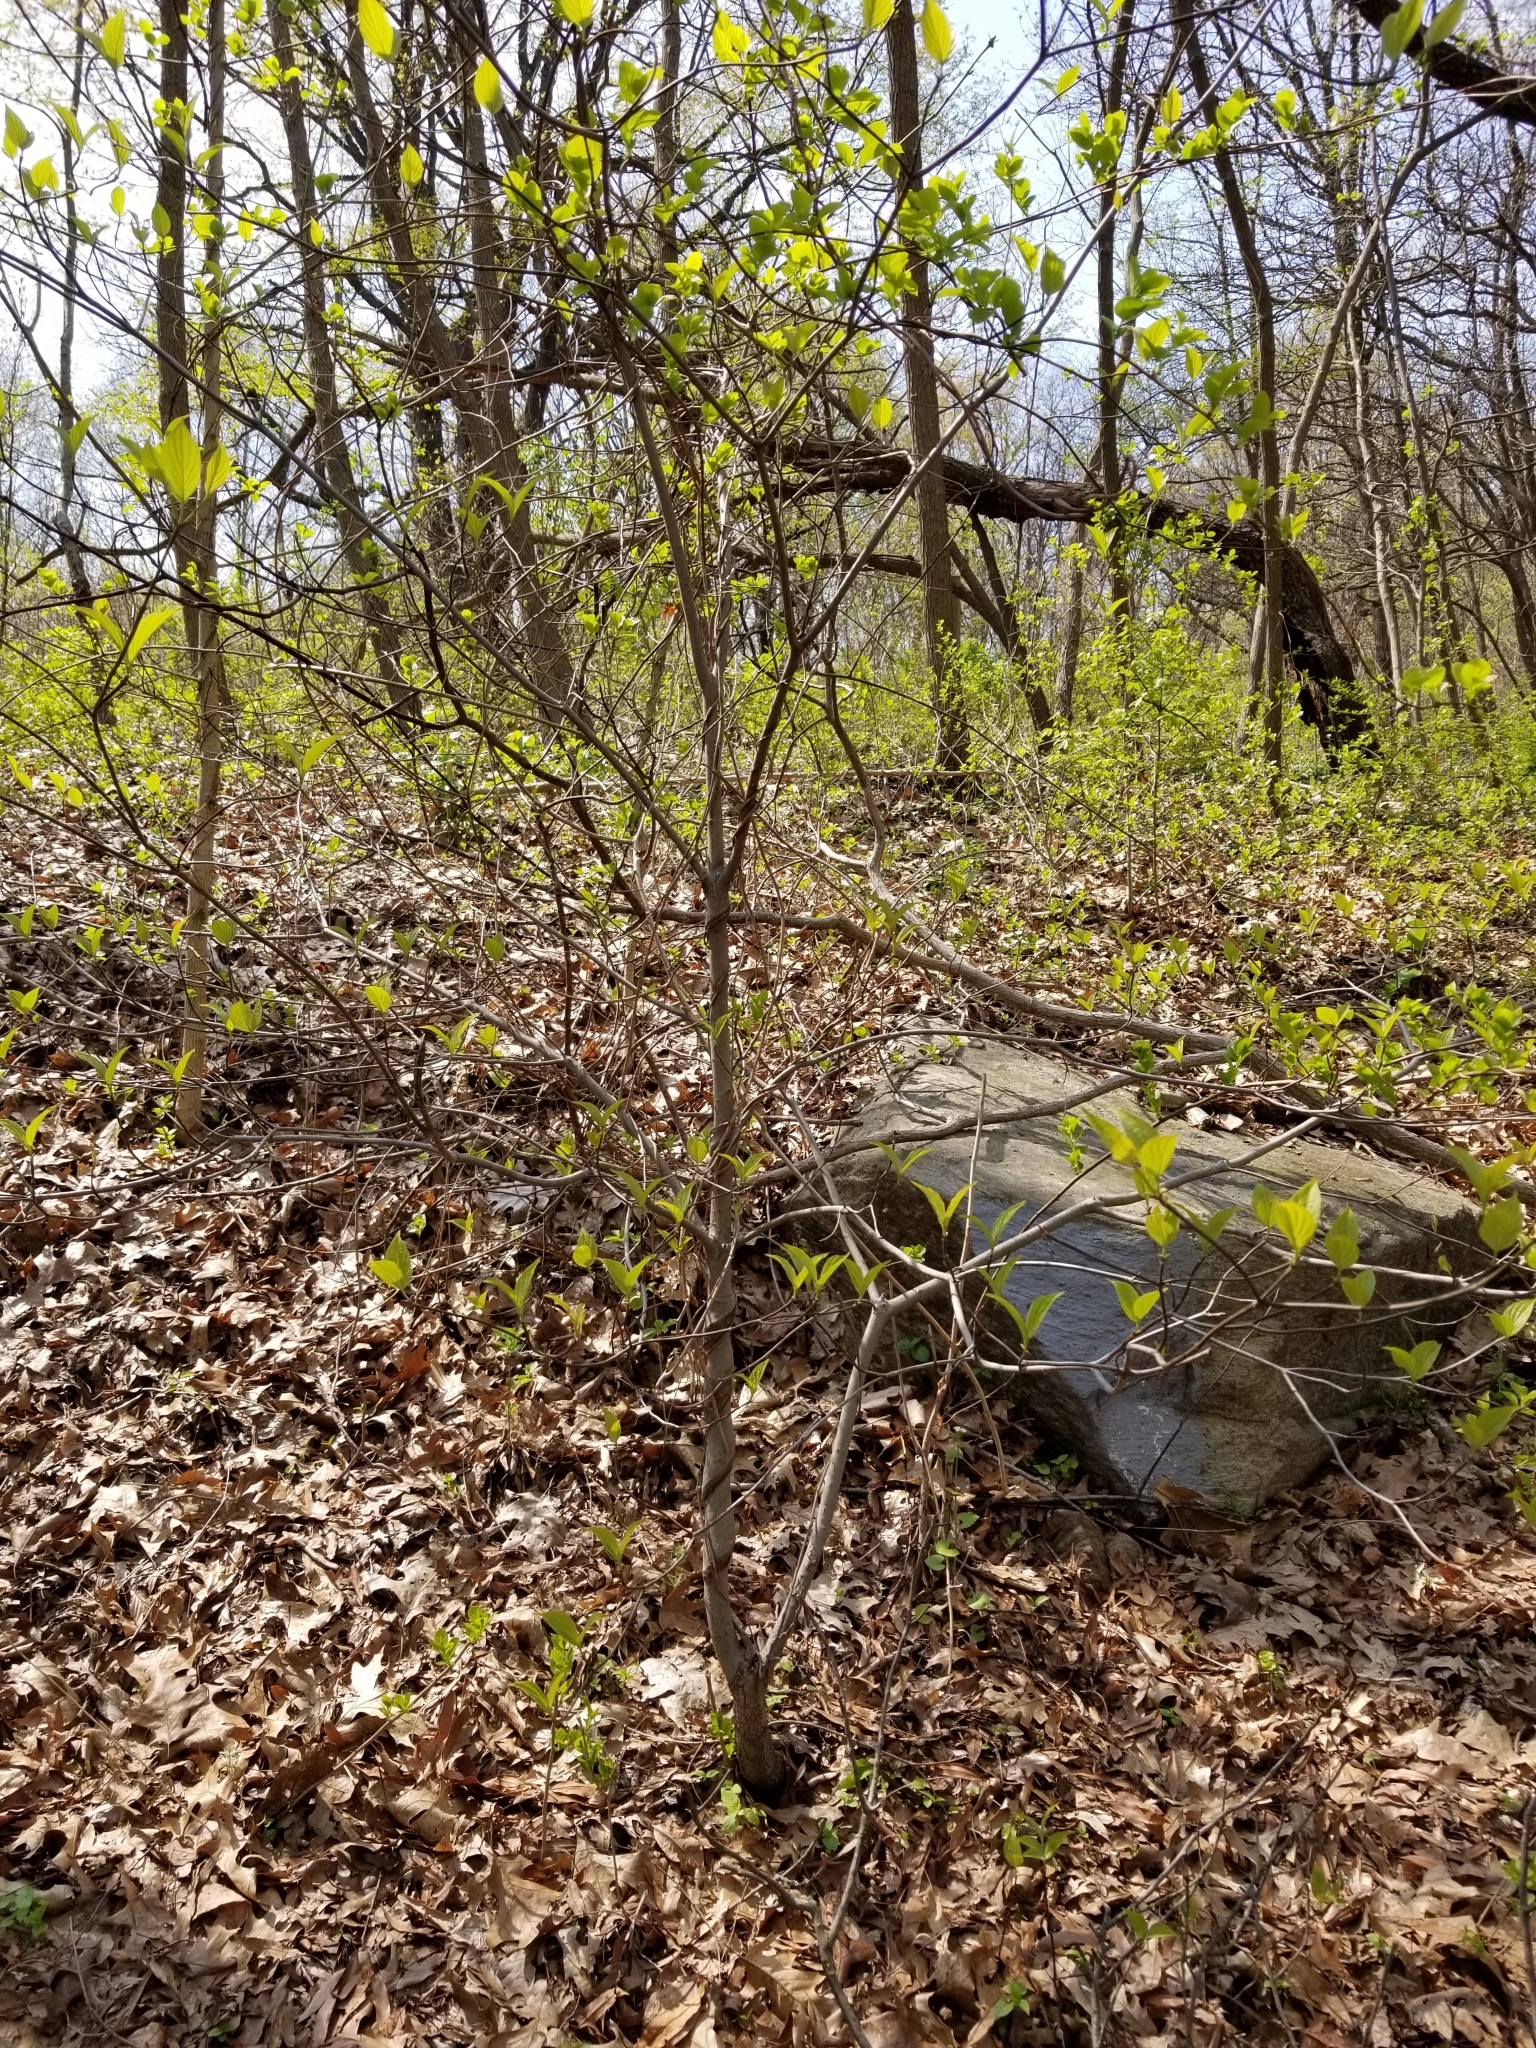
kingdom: Plantae
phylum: Tracheophyta
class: Magnoliopsida
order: Cornales
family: Cornaceae
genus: Cornus
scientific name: Cornus florida
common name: Flowering dogwood
